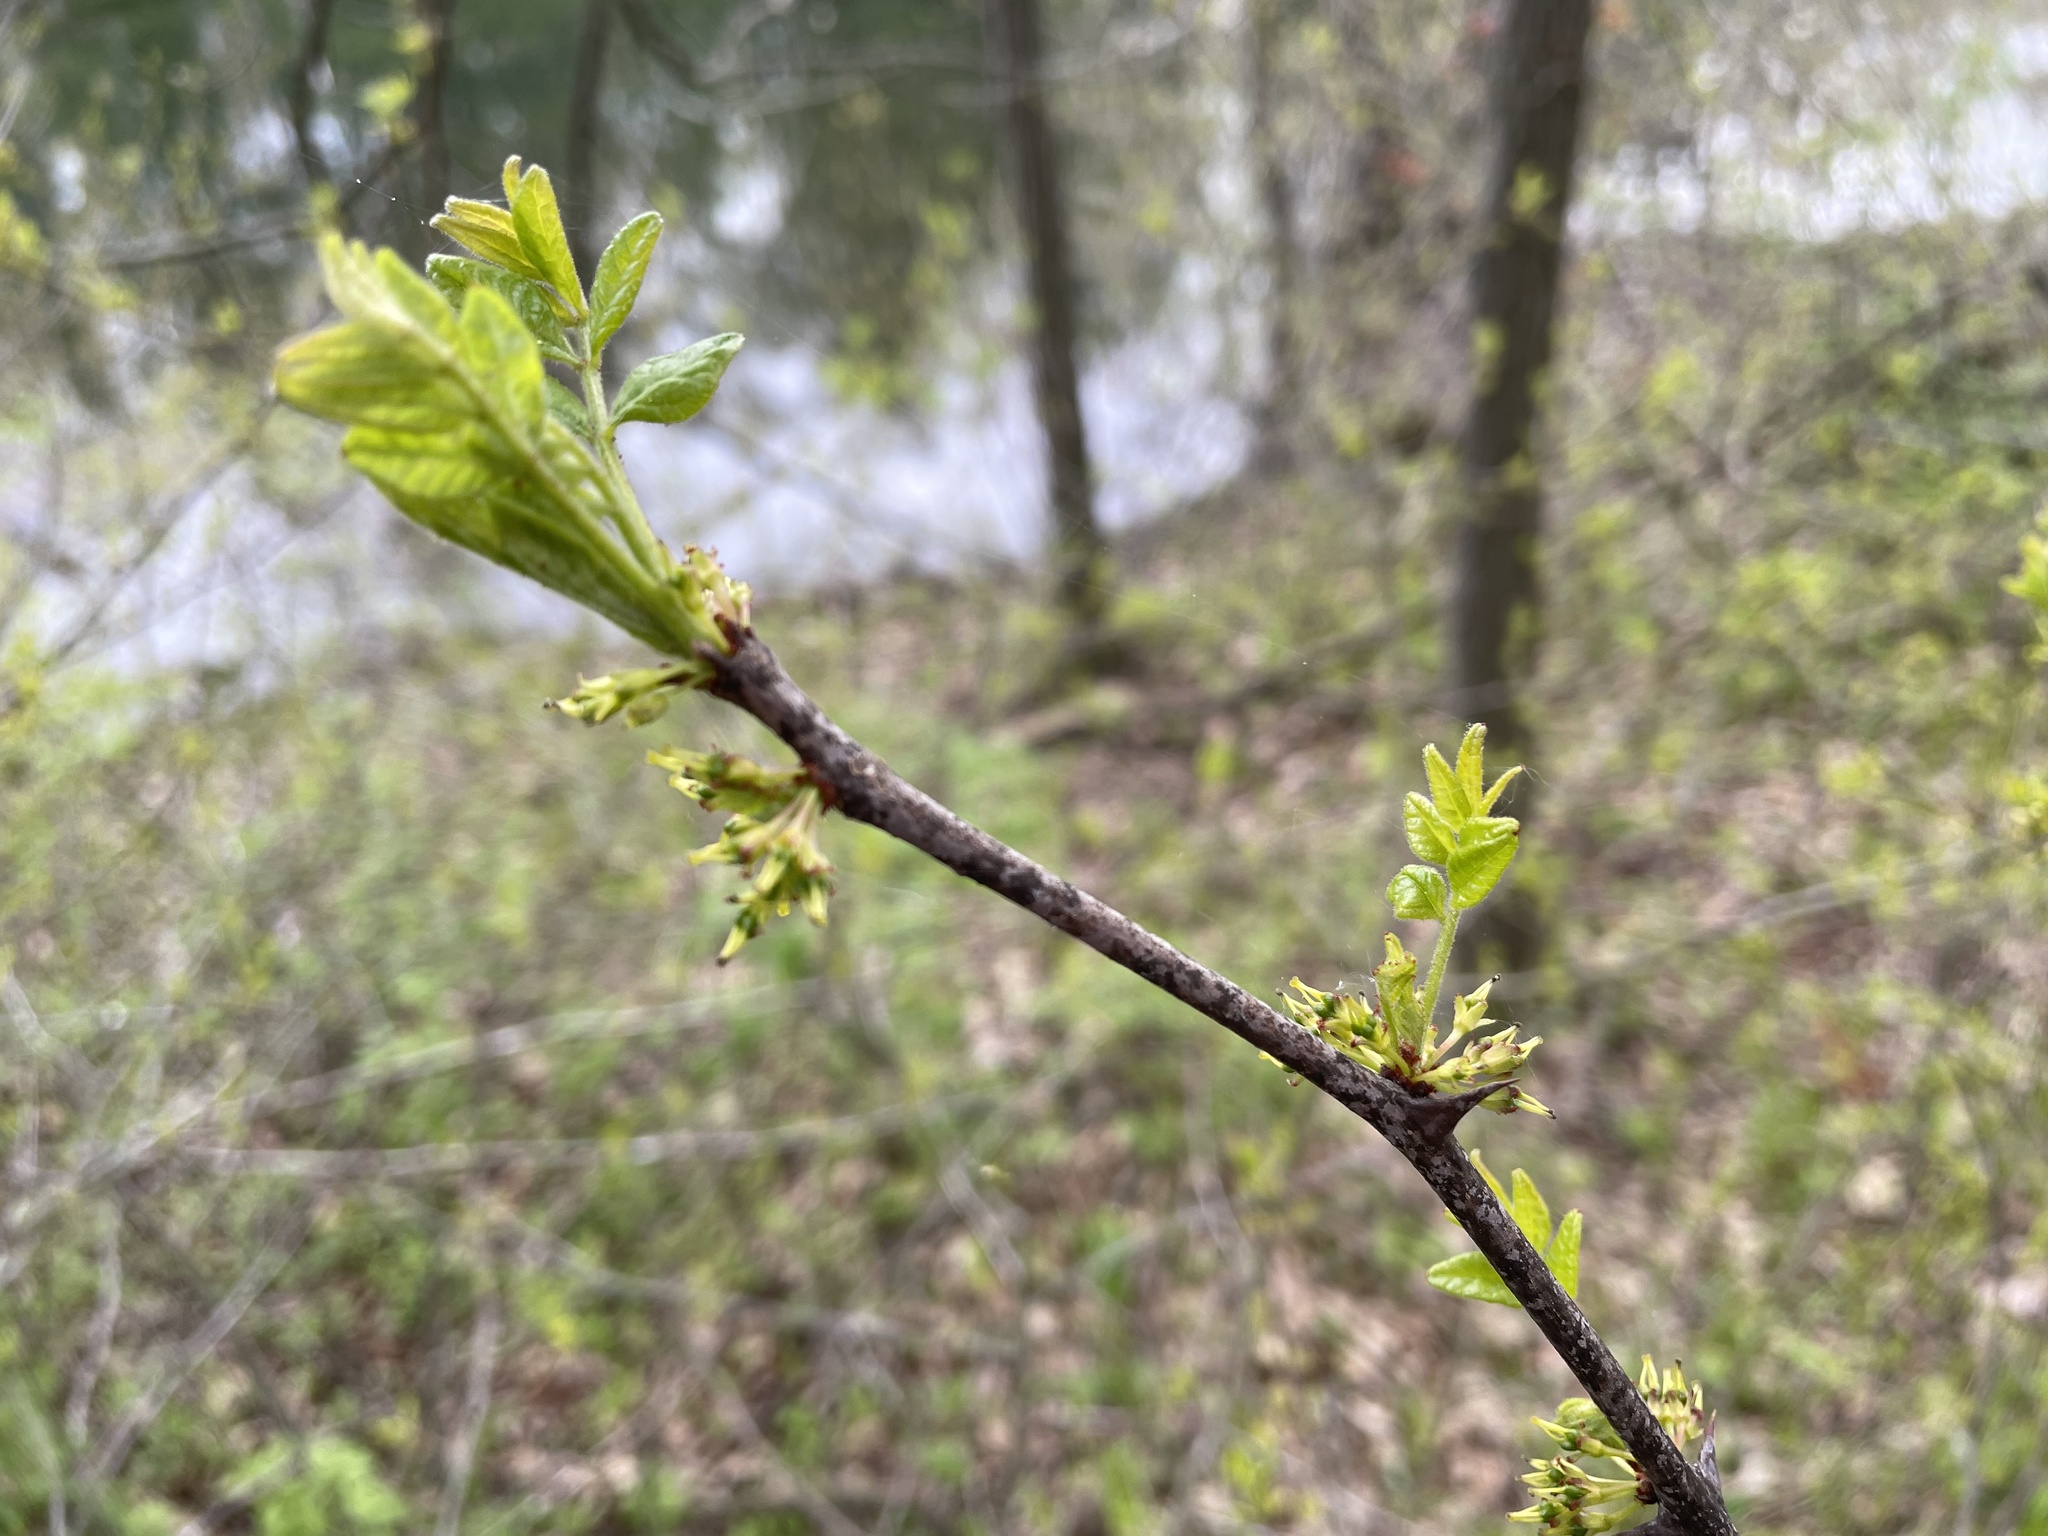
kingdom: Plantae
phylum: Tracheophyta
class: Magnoliopsida
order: Sapindales
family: Rutaceae
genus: Zanthoxylum
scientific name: Zanthoxylum americanum
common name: Northern prickly-ash
